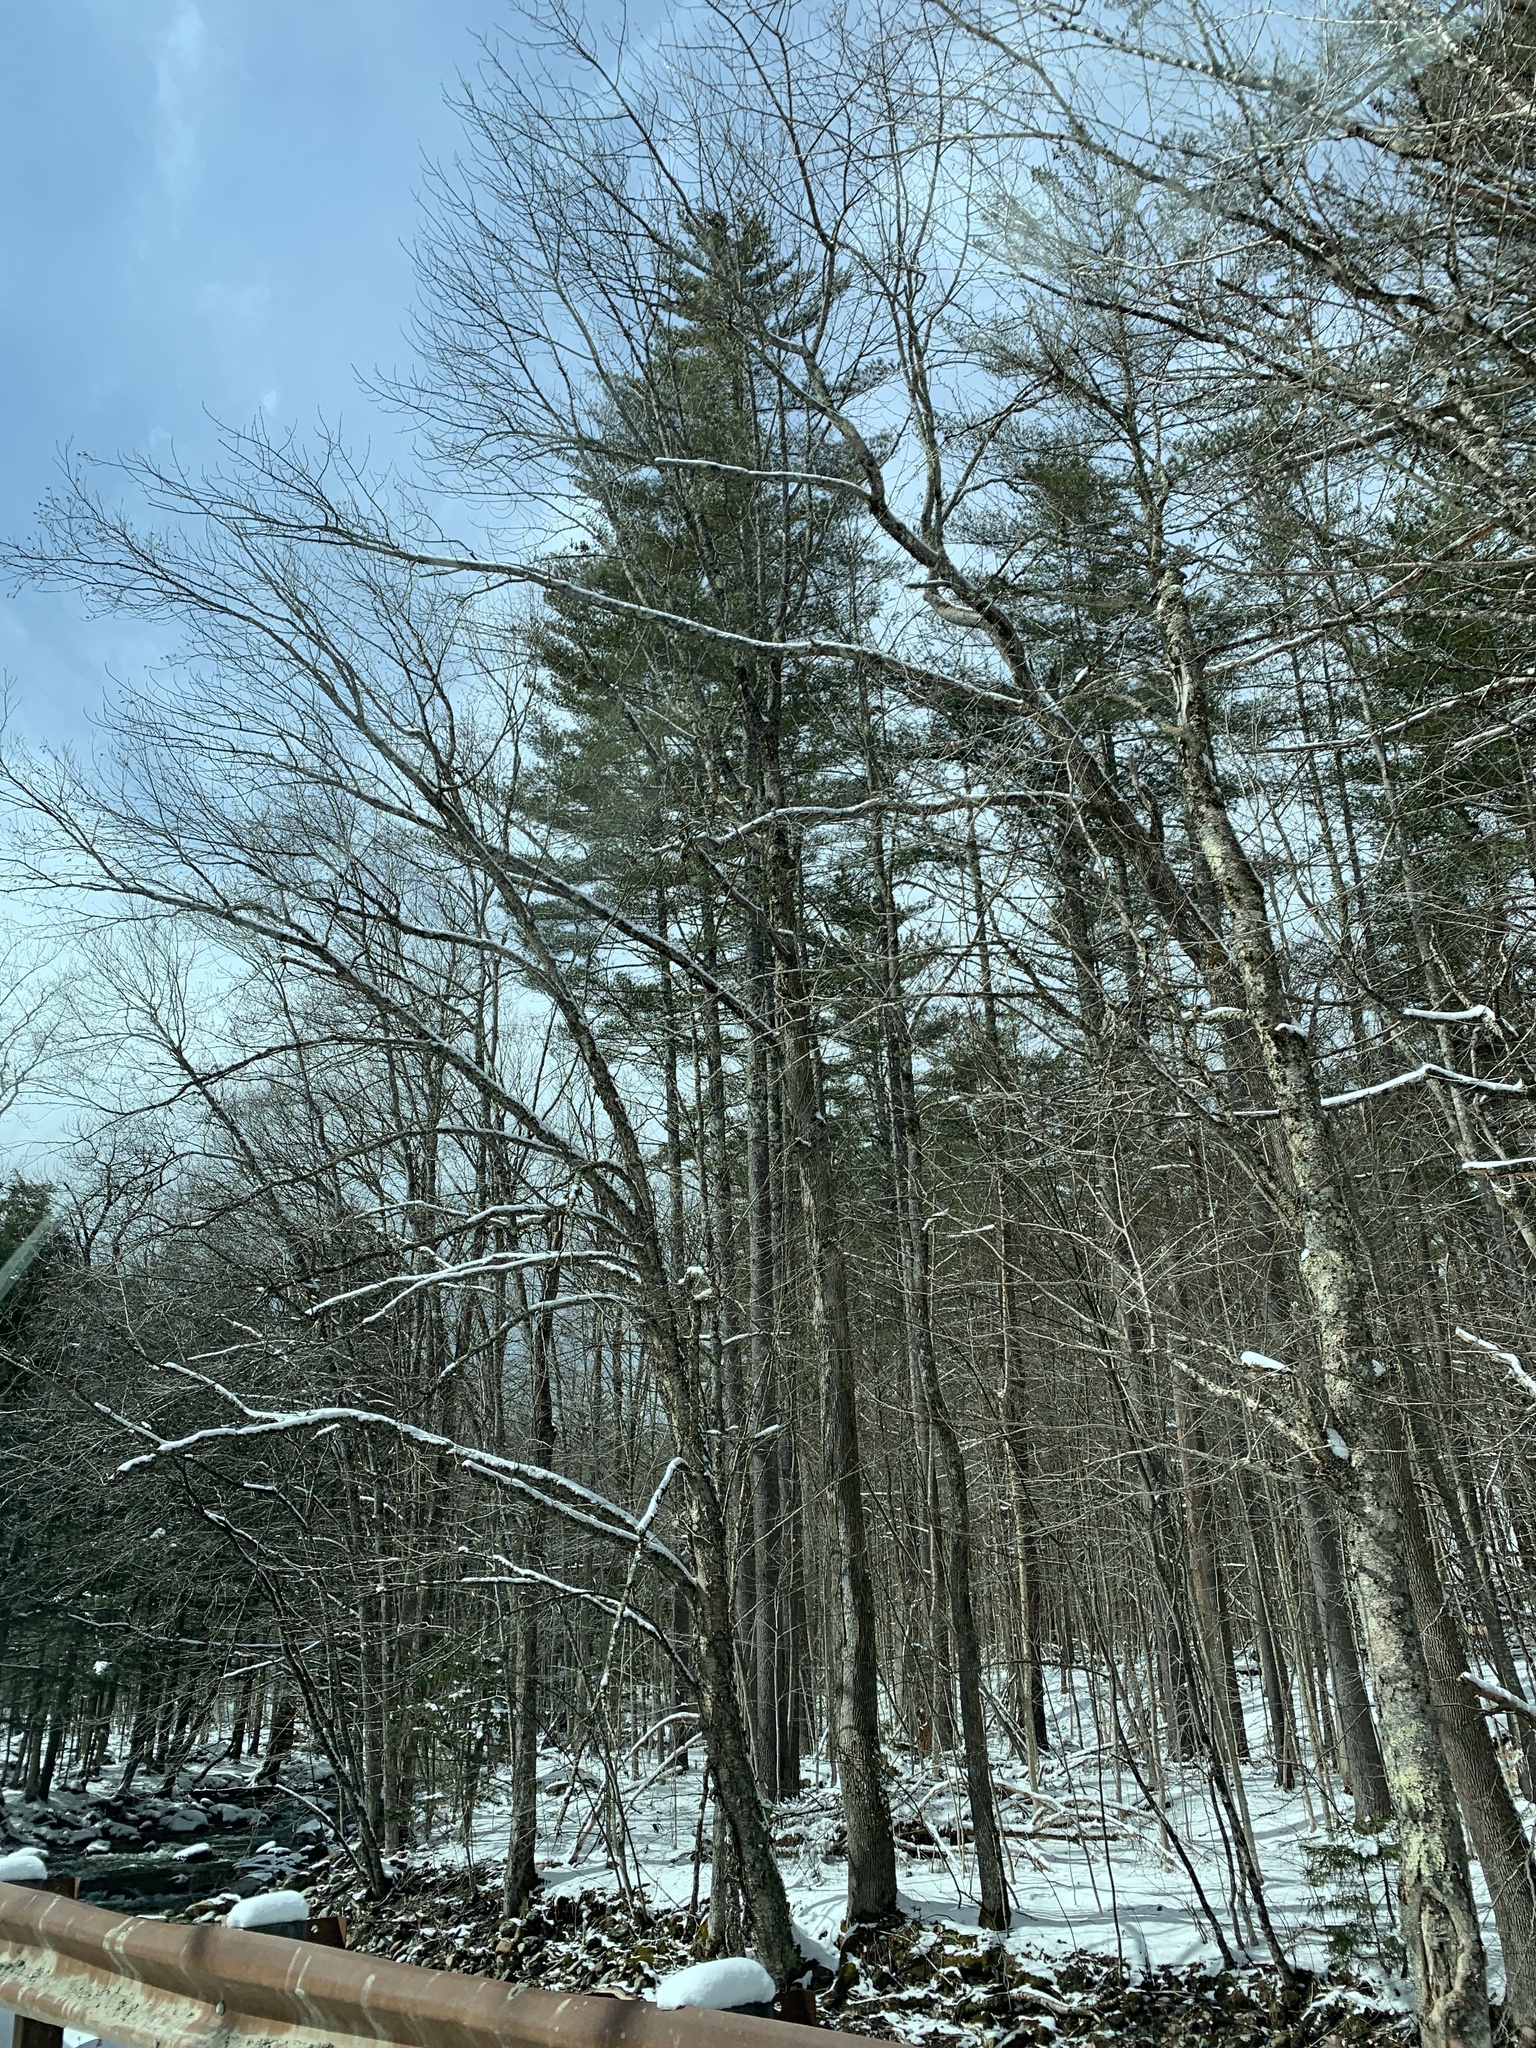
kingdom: Plantae
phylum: Tracheophyta
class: Pinopsida
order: Pinales
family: Pinaceae
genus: Pinus
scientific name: Pinus strobus
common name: Weymouth pine
